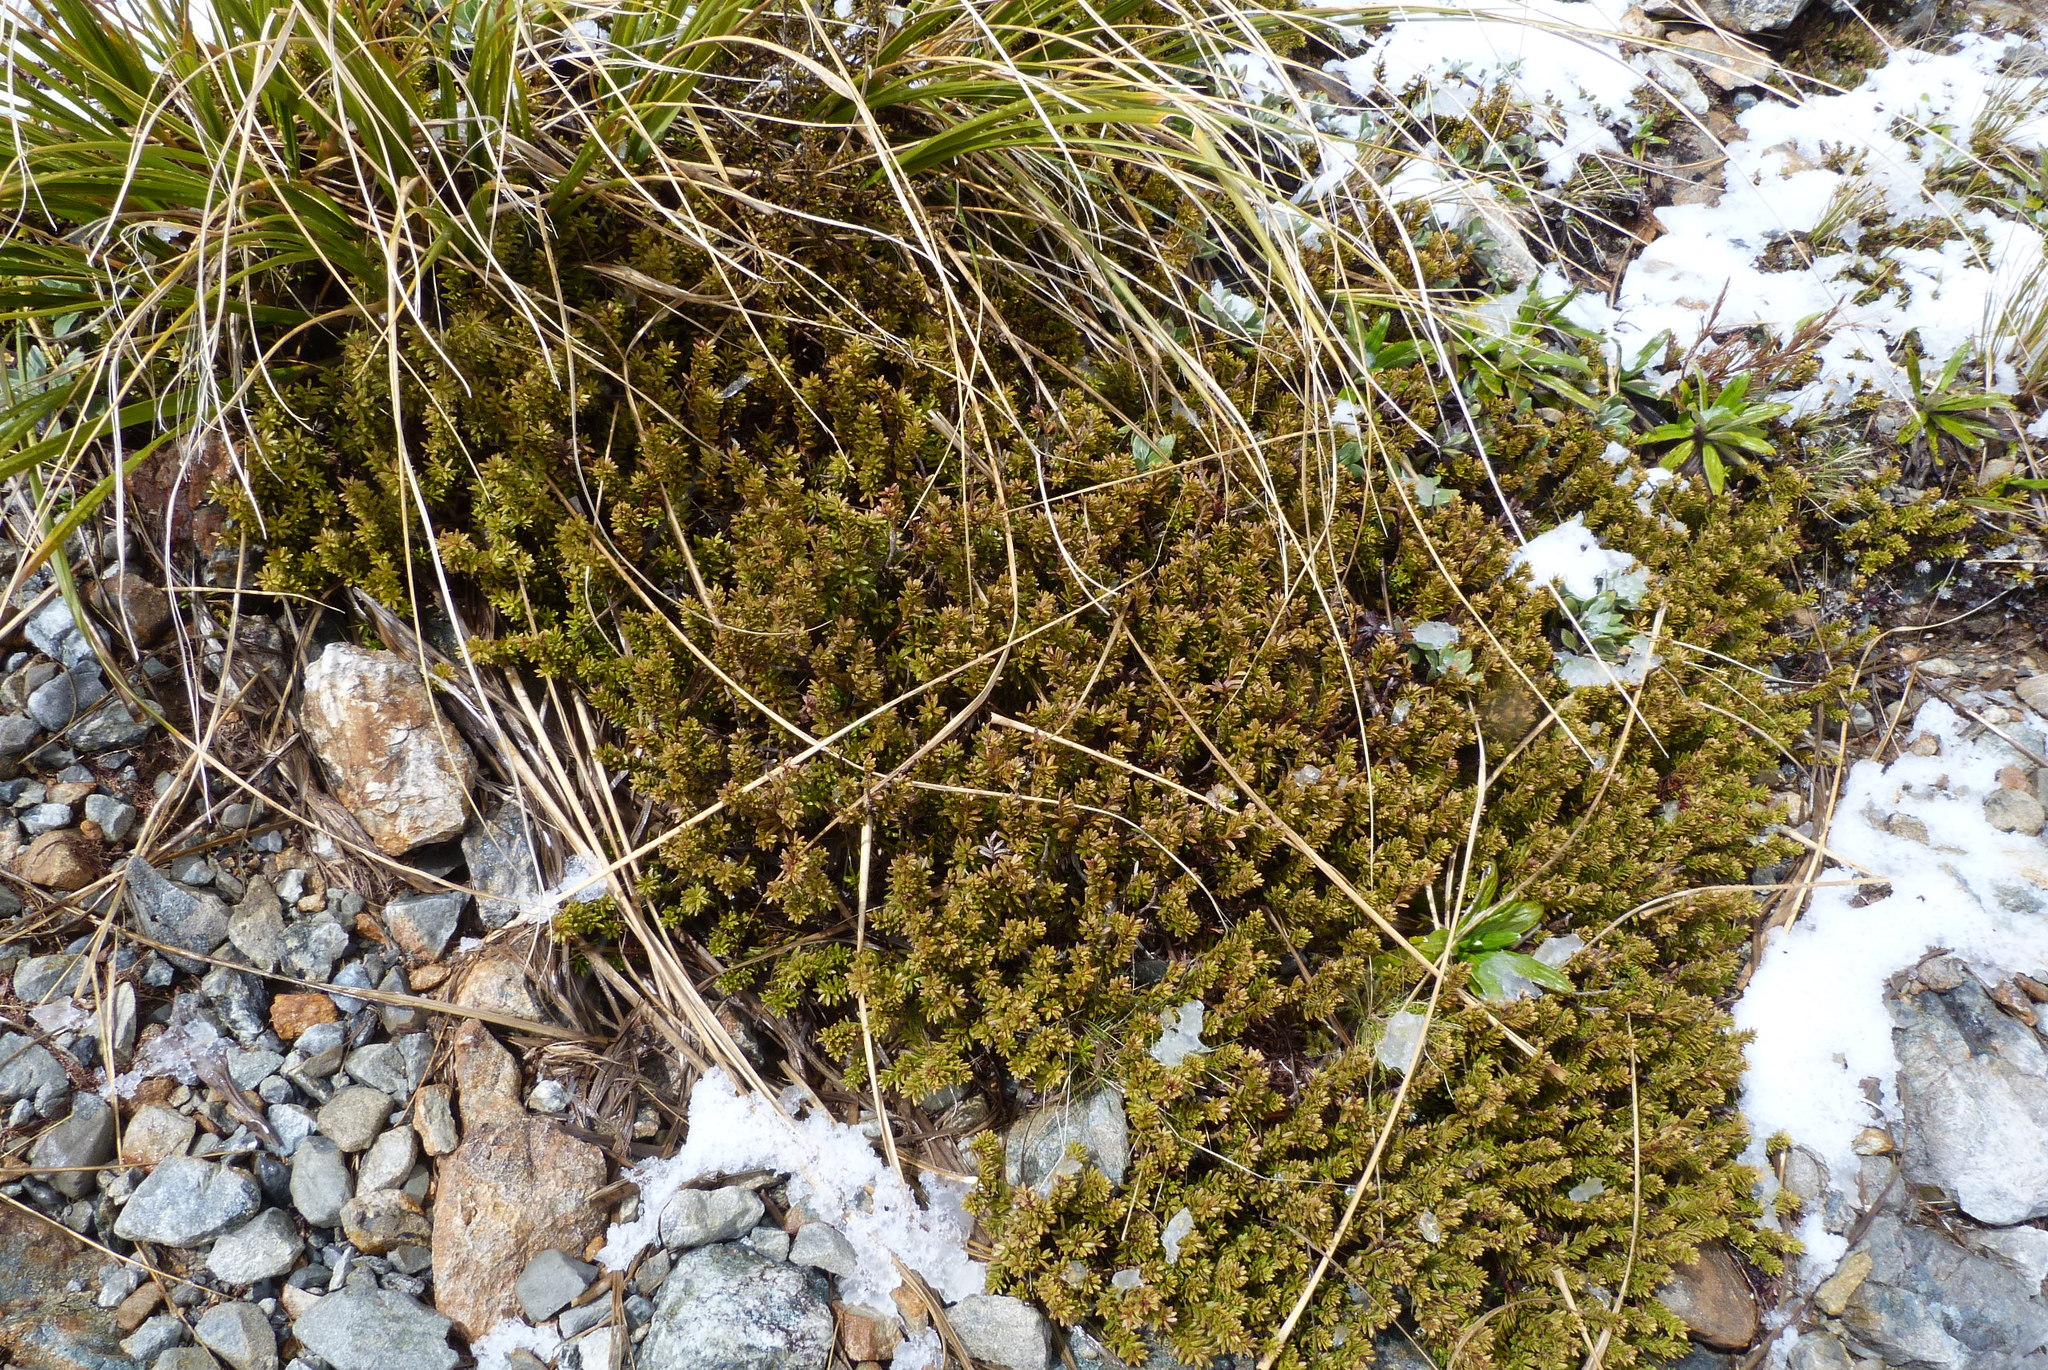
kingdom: Plantae
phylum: Tracheophyta
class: Pinopsida
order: Pinales
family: Podocarpaceae
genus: Podocarpus
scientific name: Podocarpus nivalis
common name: Alpine totara
